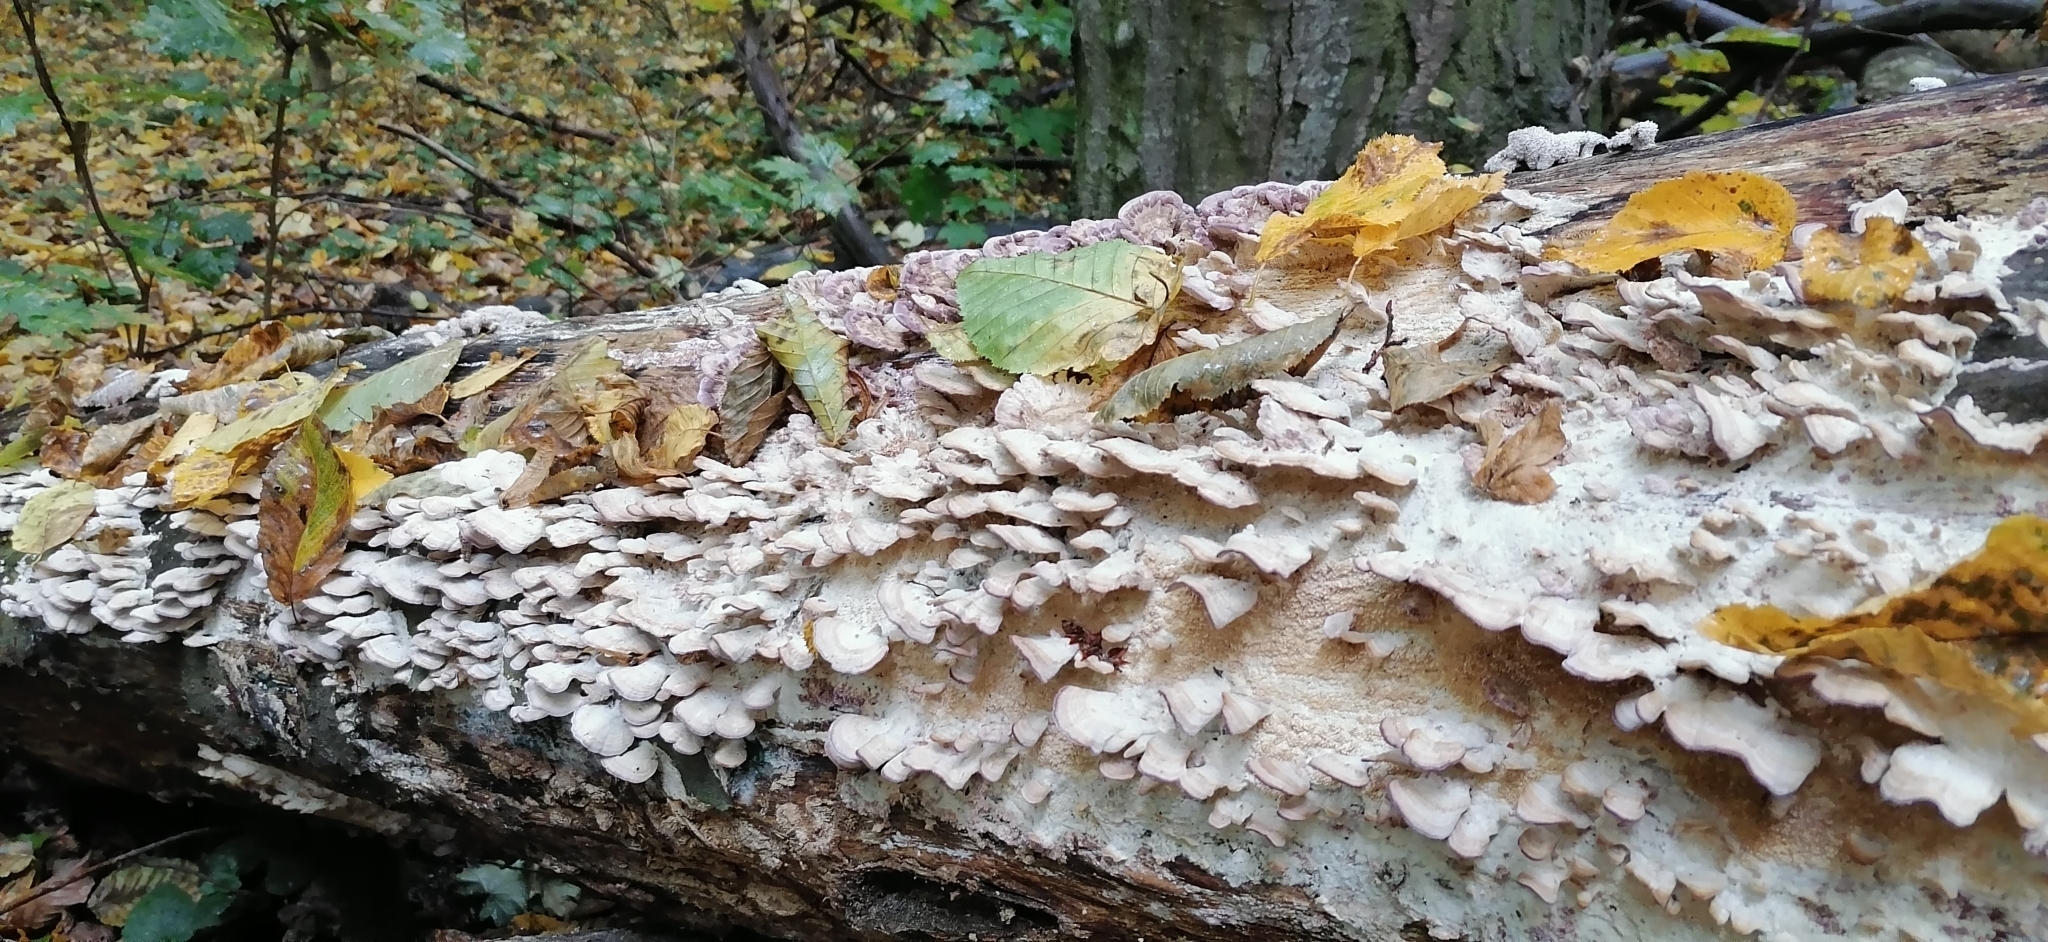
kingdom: Fungi
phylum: Basidiomycota
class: Agaricomycetes
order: Hymenochaetales
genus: Trichaptum
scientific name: Trichaptum biforme
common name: Violet-toothed polypore
